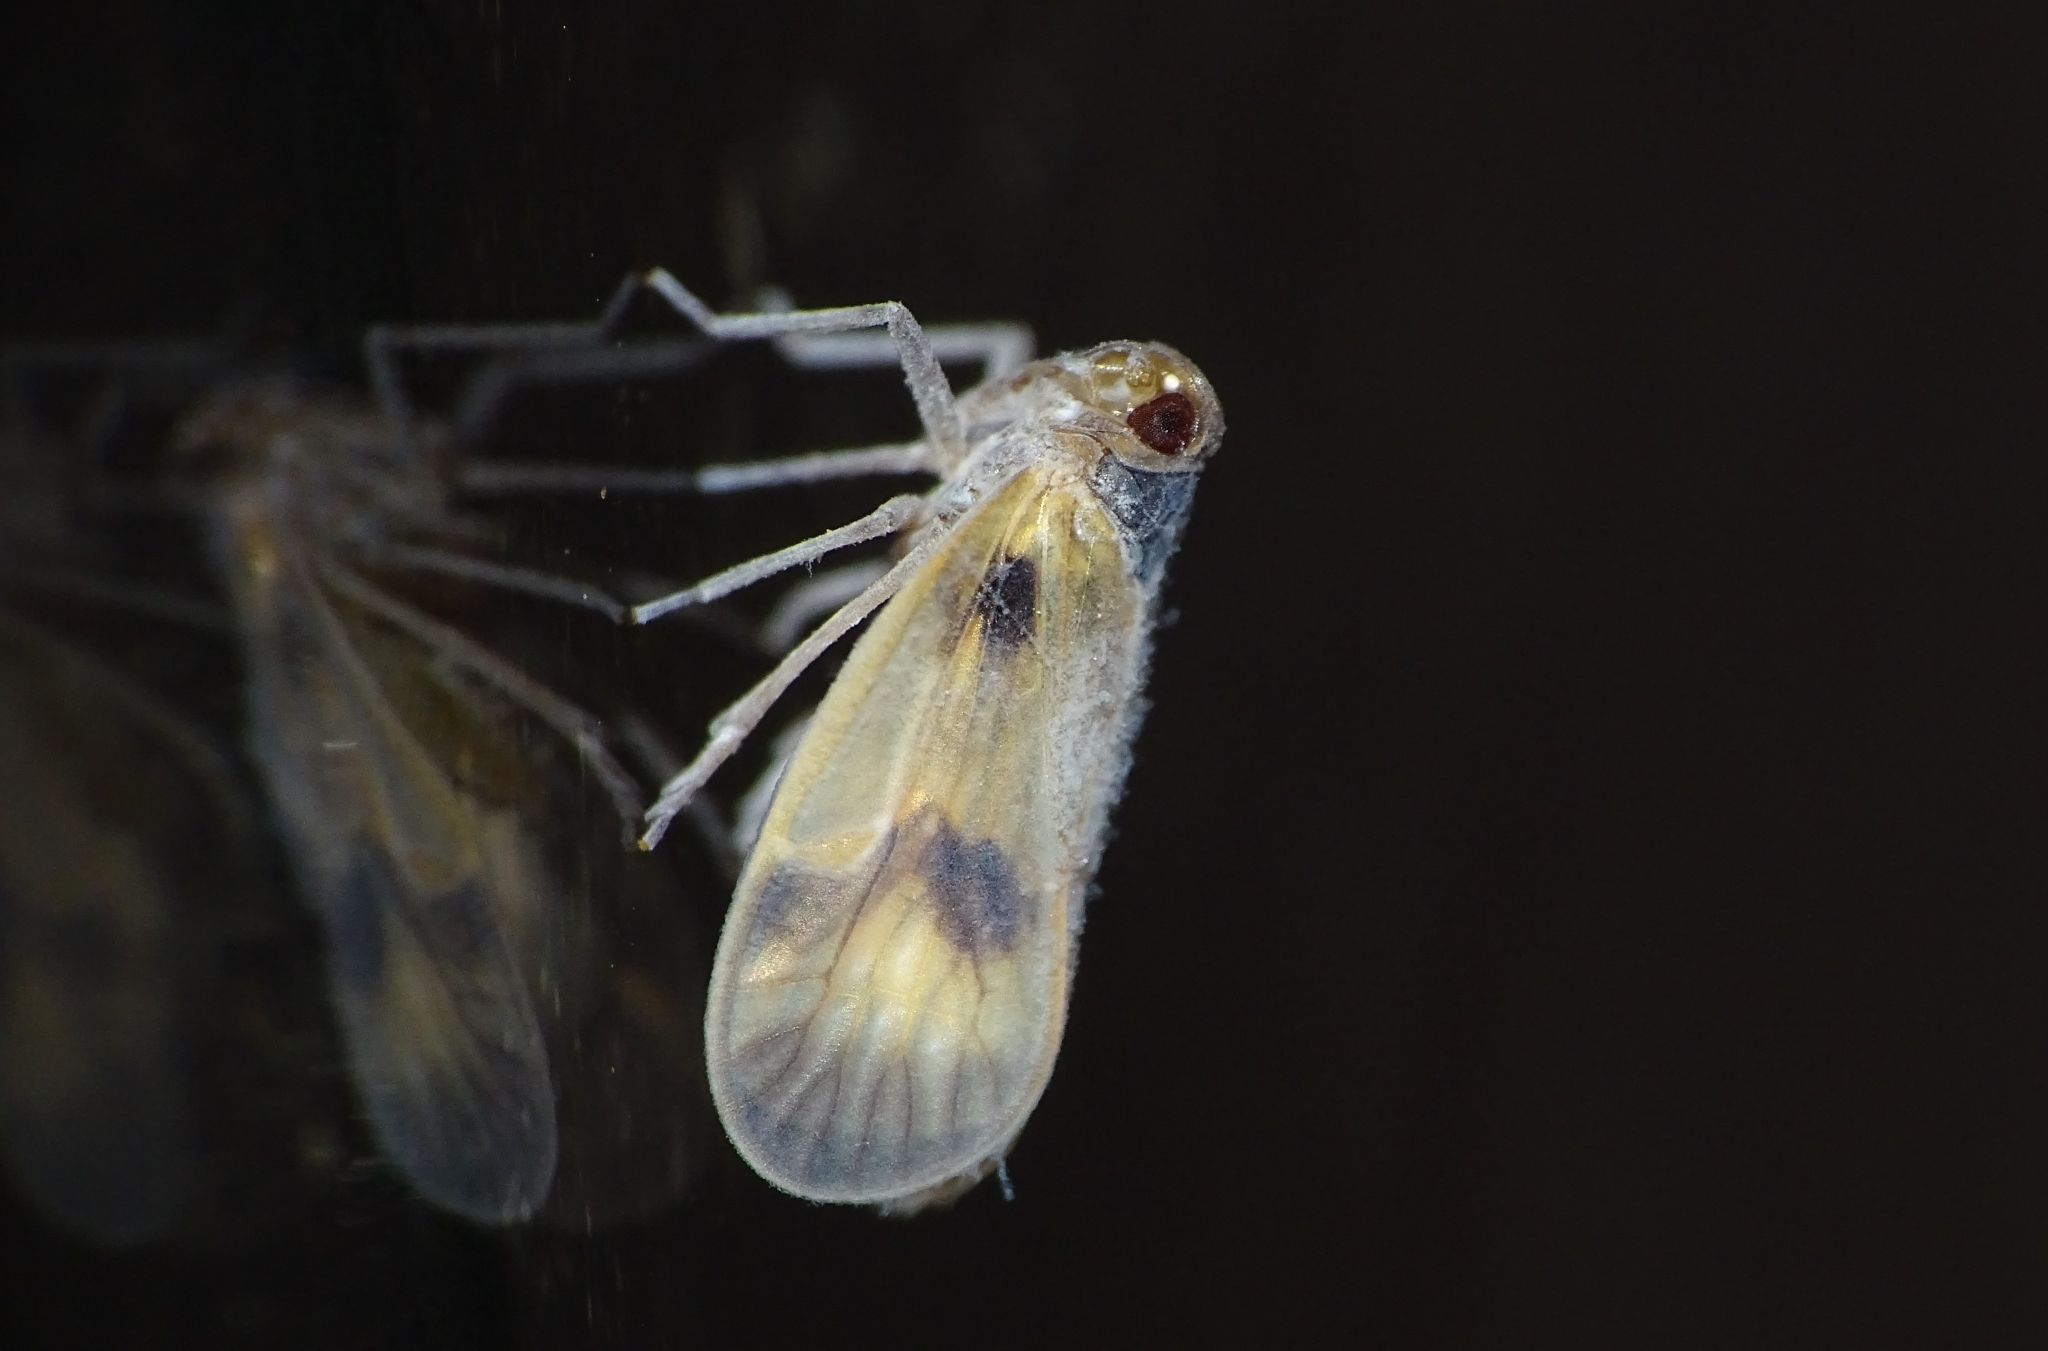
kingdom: Animalia
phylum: Arthropoda
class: Insecta
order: Hemiptera
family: Kinnaridae
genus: Kinnara
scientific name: Kinnara maculata
